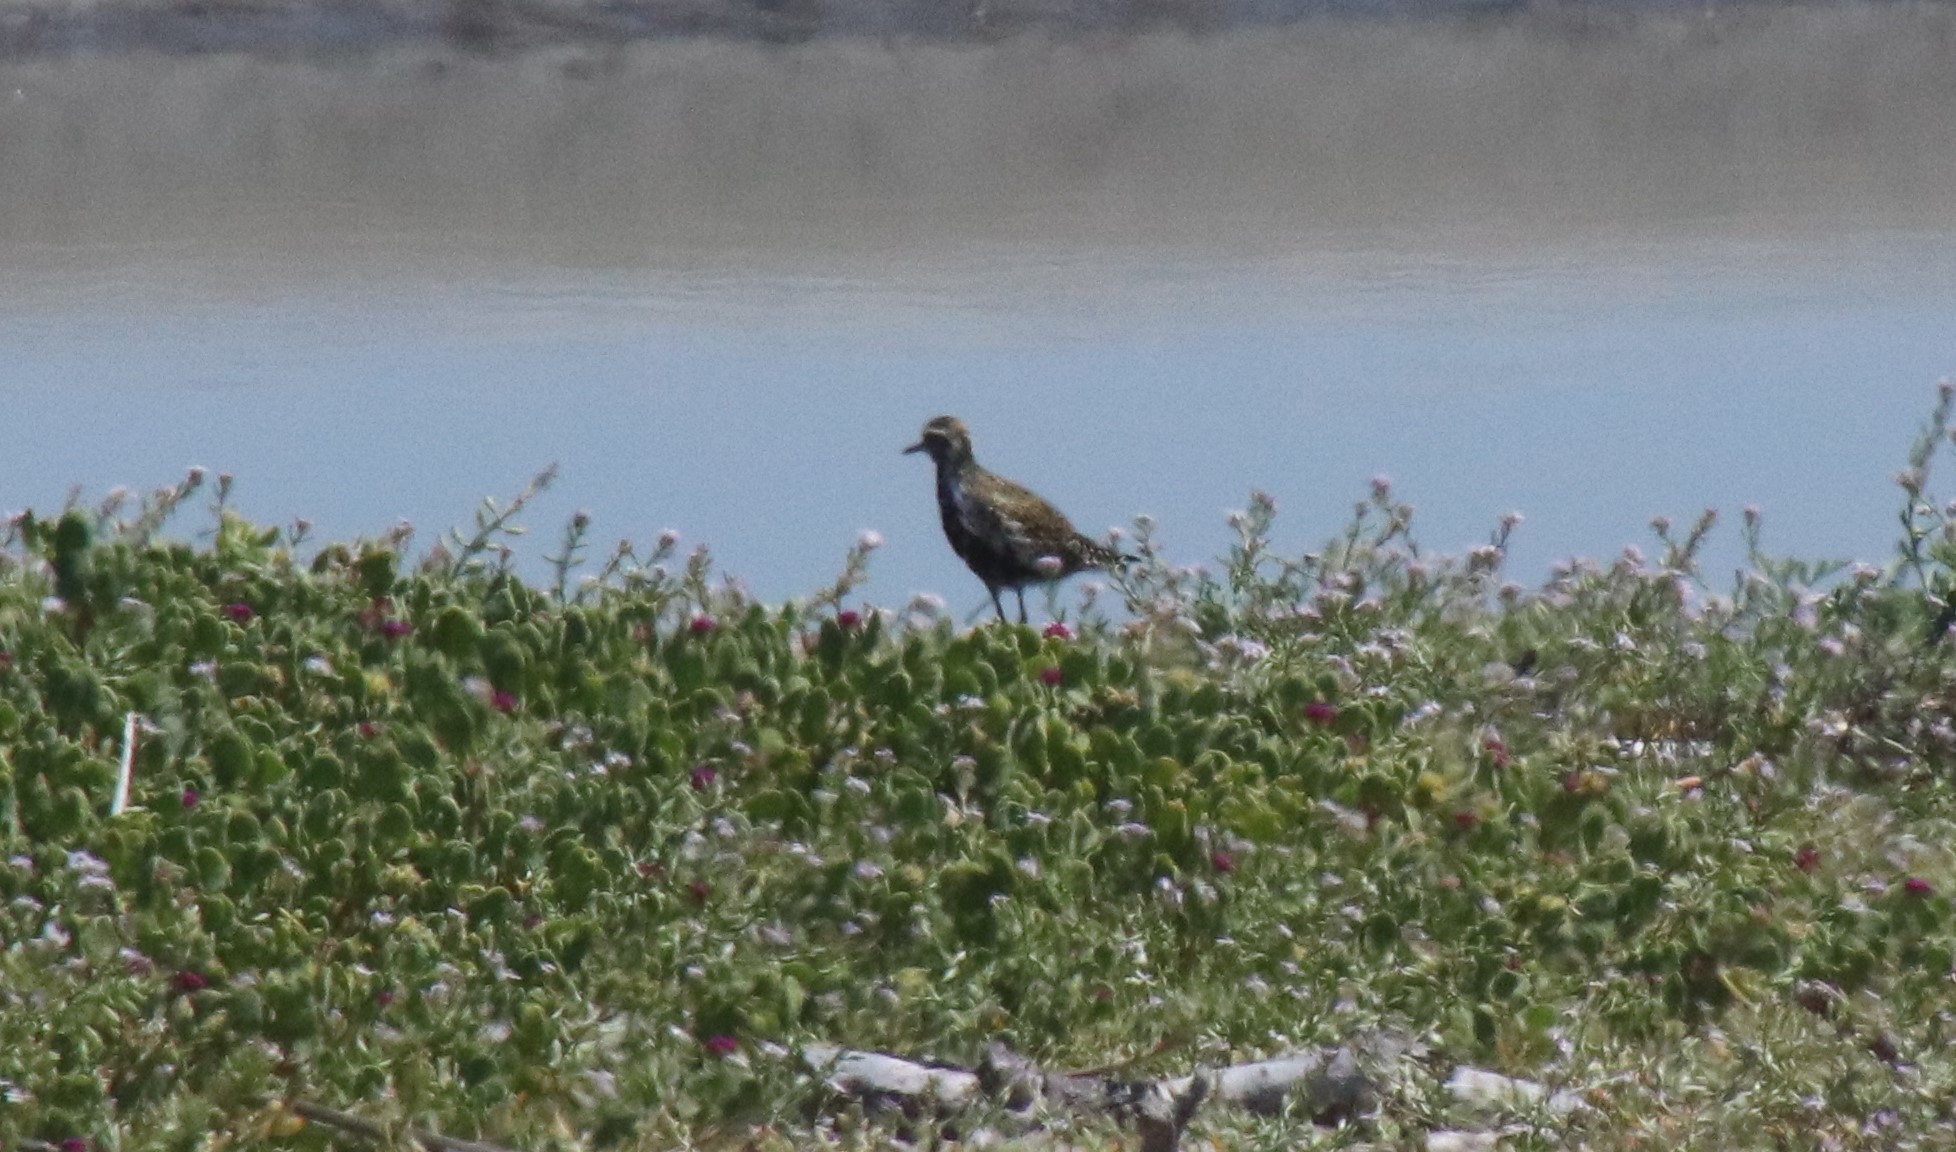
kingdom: Animalia
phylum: Chordata
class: Aves
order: Charadriiformes
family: Charadriidae
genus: Pluvialis
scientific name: Pluvialis fulva
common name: Pacific golden plover
